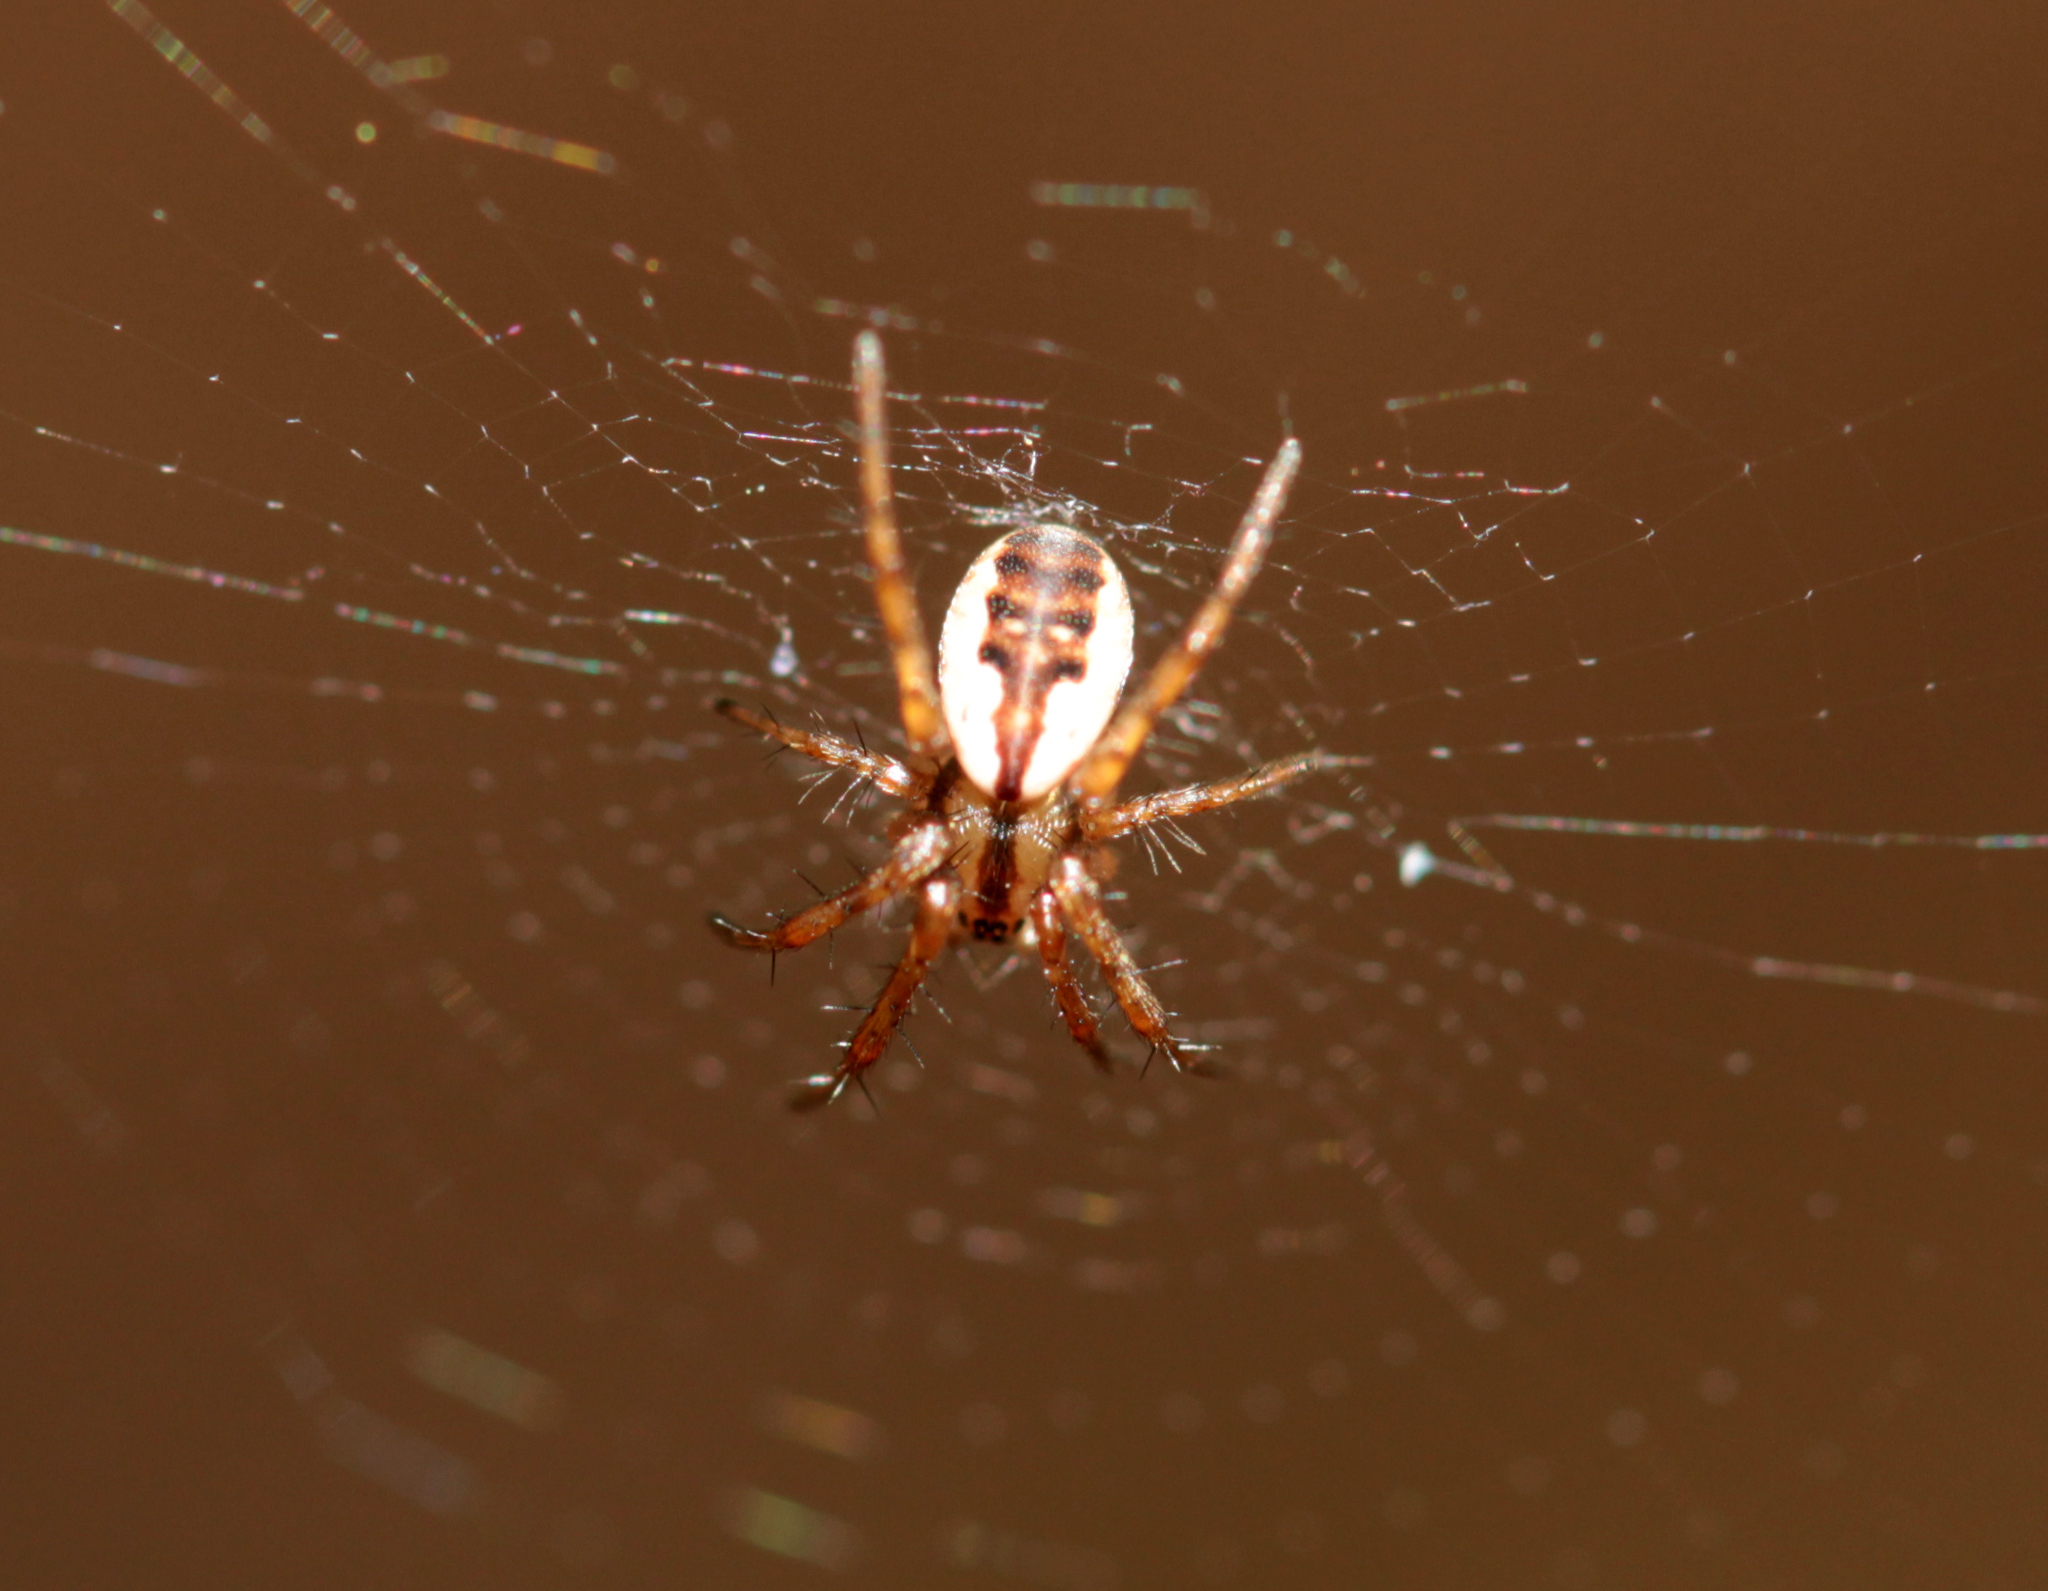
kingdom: Animalia
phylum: Arthropoda
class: Arachnida
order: Araneae
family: Araneidae
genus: Mangora
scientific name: Mangora placida
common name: Tuft-legged orbweaver
